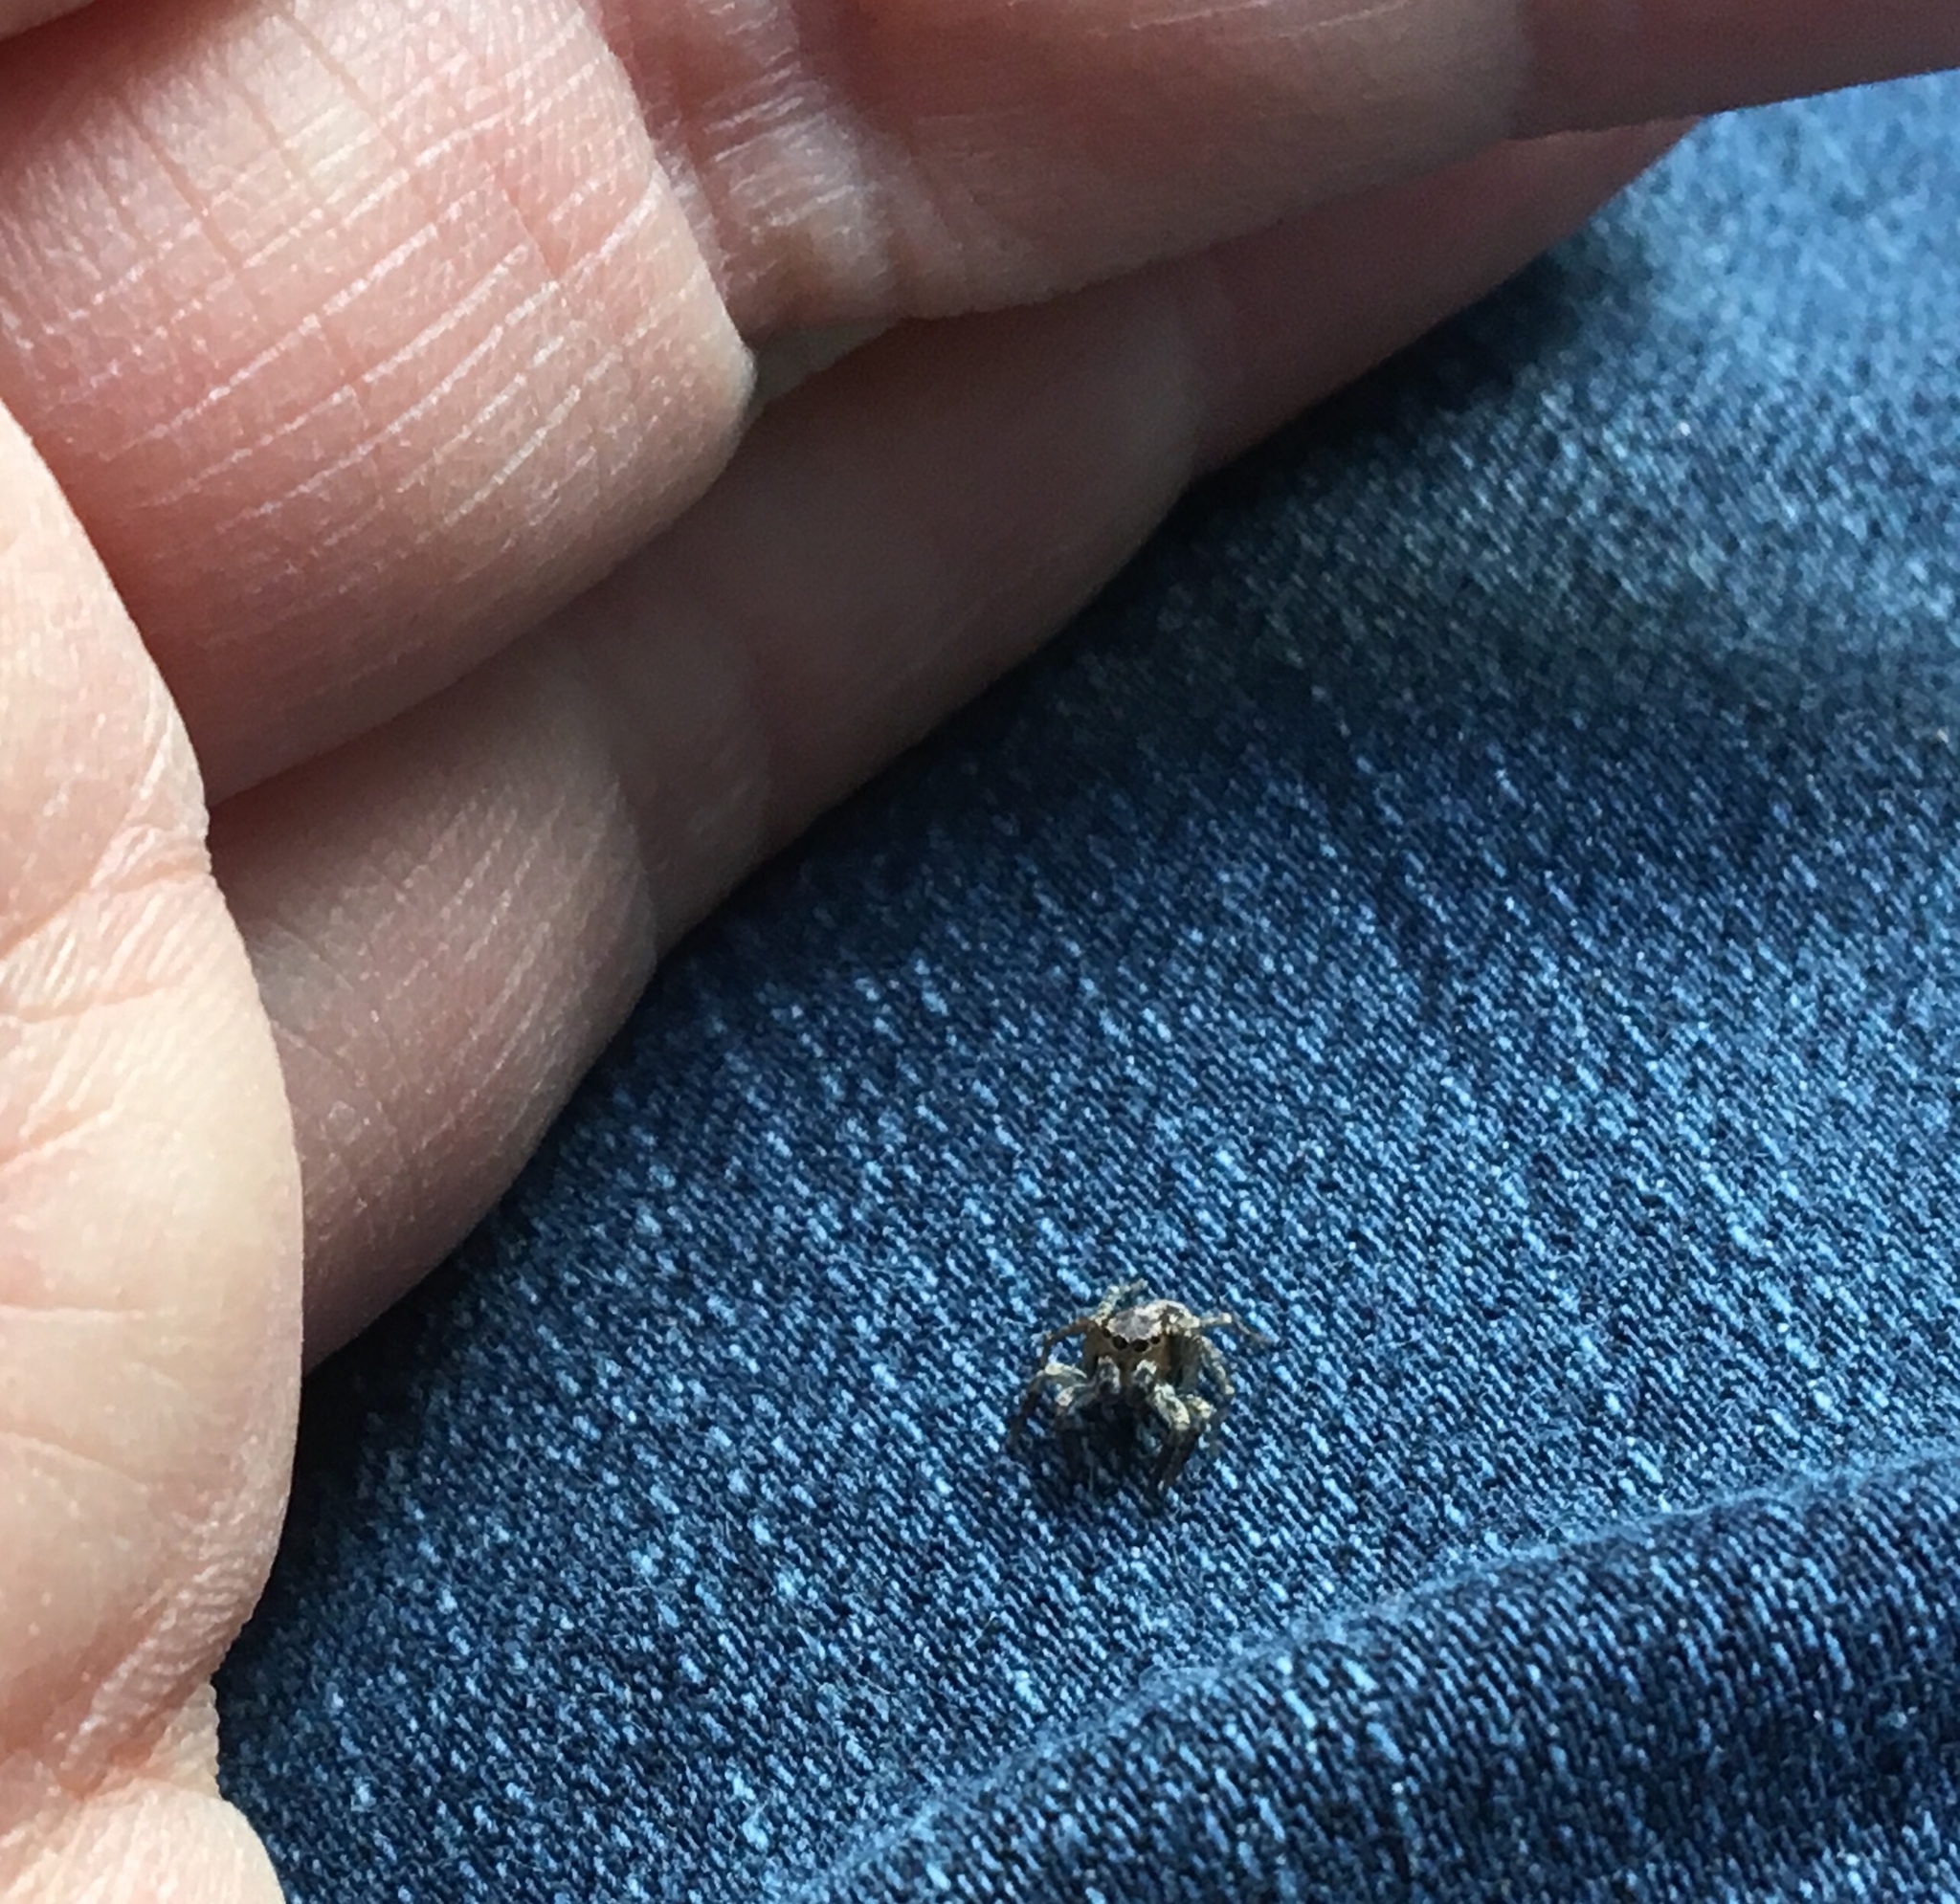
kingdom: Animalia
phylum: Arthropoda
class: Arachnida
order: Araneae
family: Salticidae
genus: Naphrys
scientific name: Naphrys pulex
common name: Flea jumping spider
